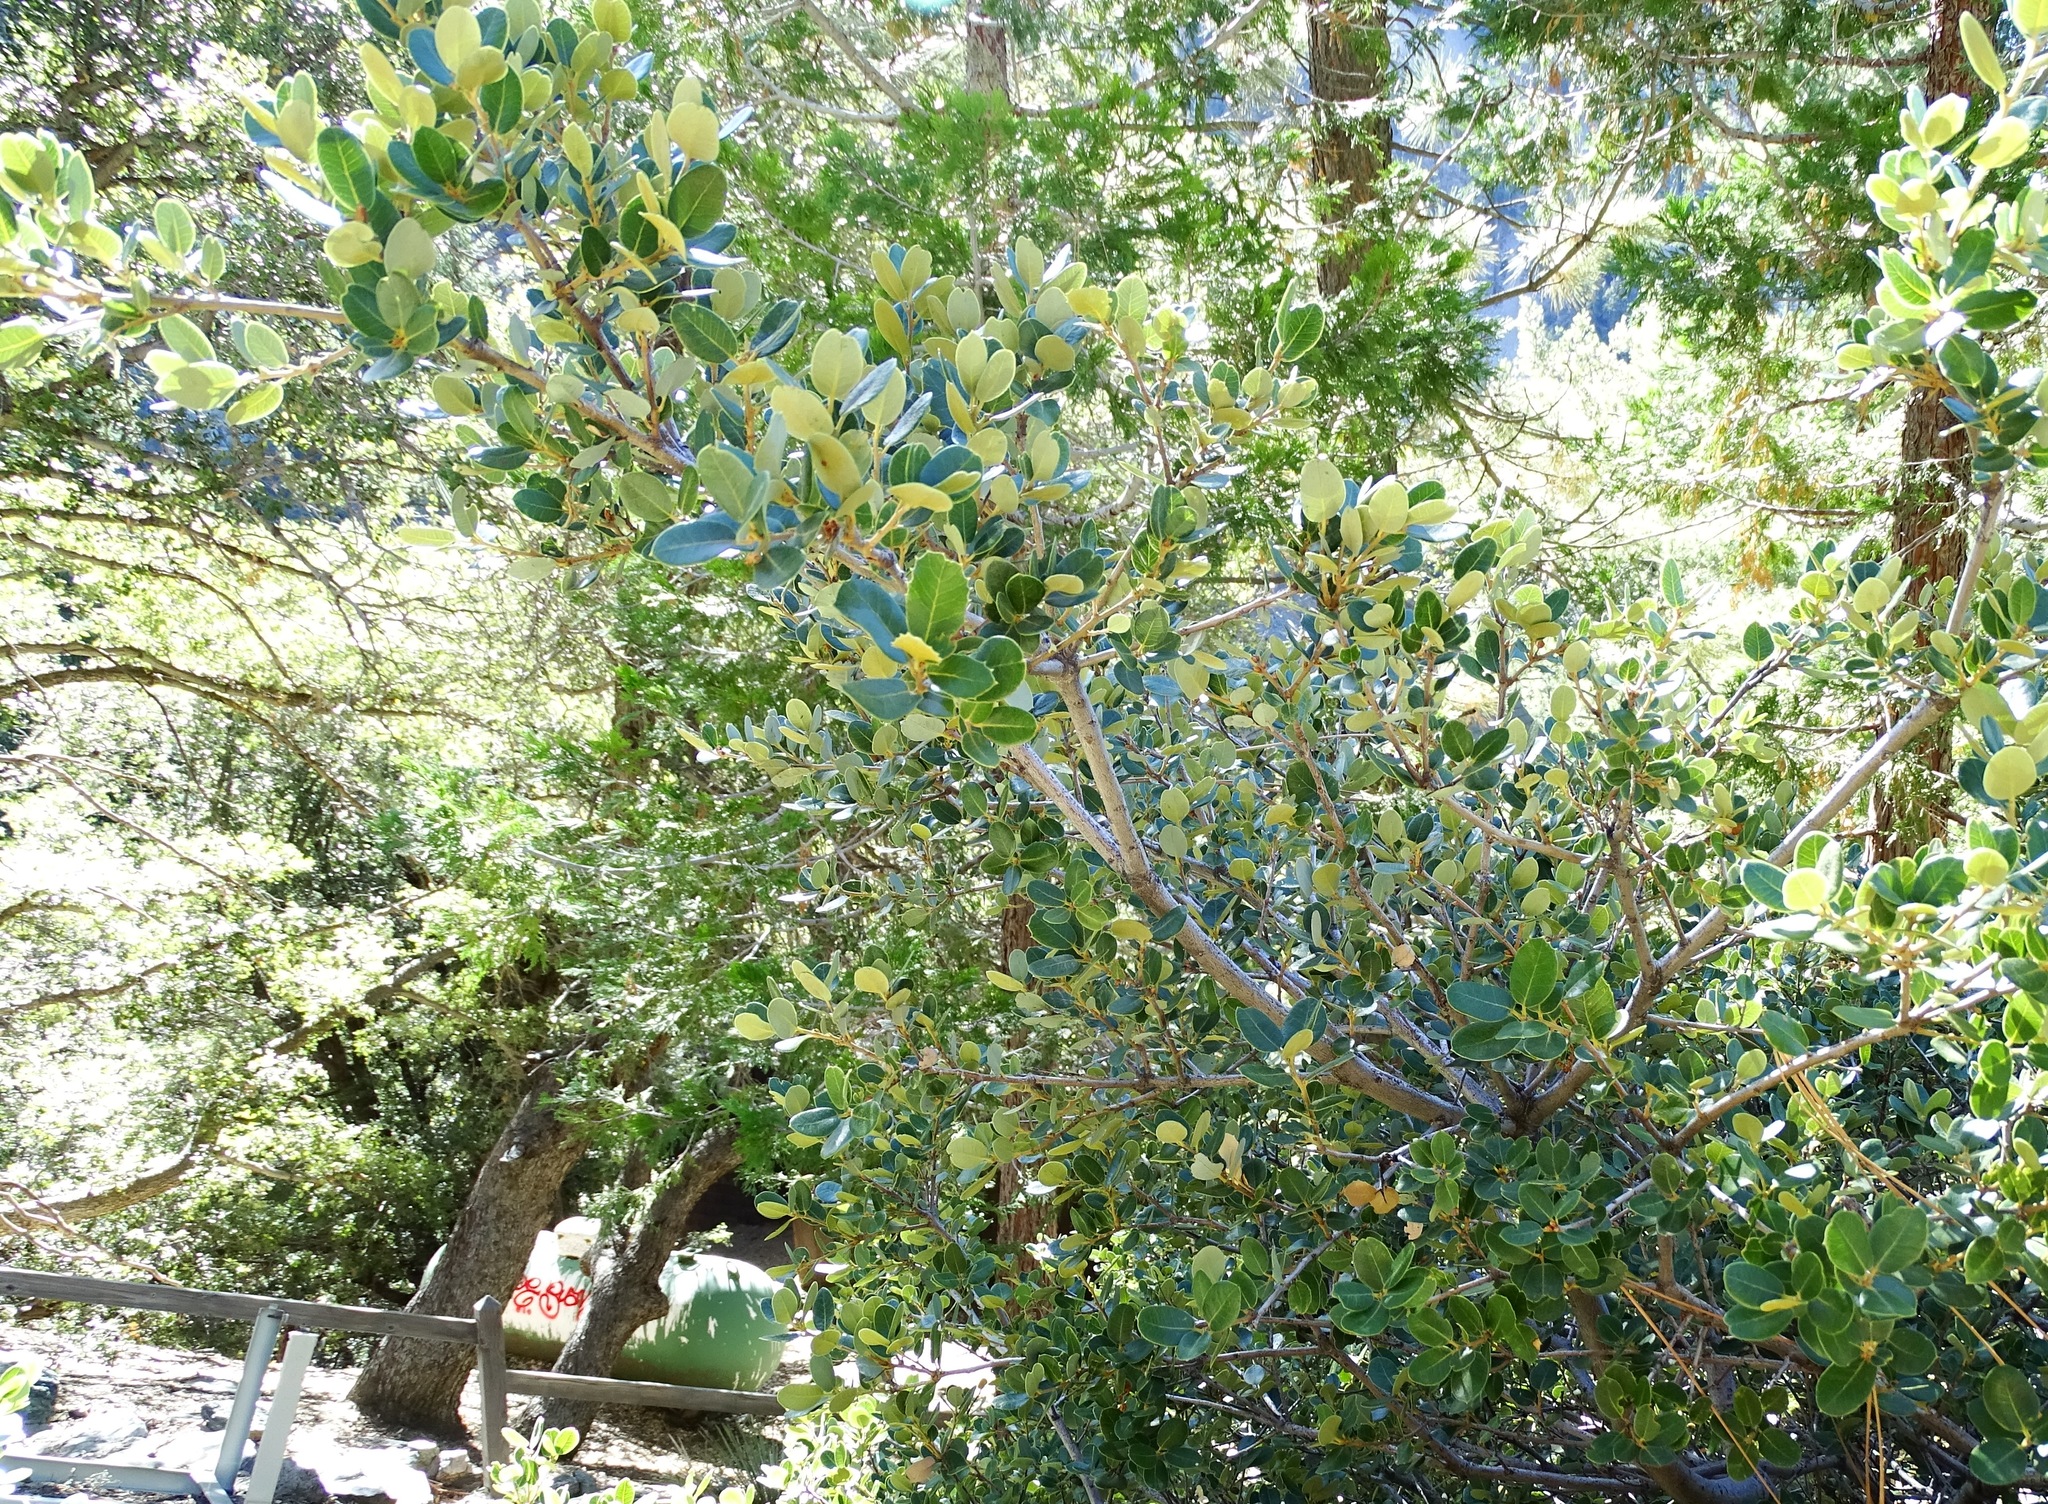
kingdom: Plantae
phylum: Tracheophyta
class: Magnoliopsida
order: Fagales
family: Fagaceae
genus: Quercus
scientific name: Quercus chrysolepis
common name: Canyon live oak
